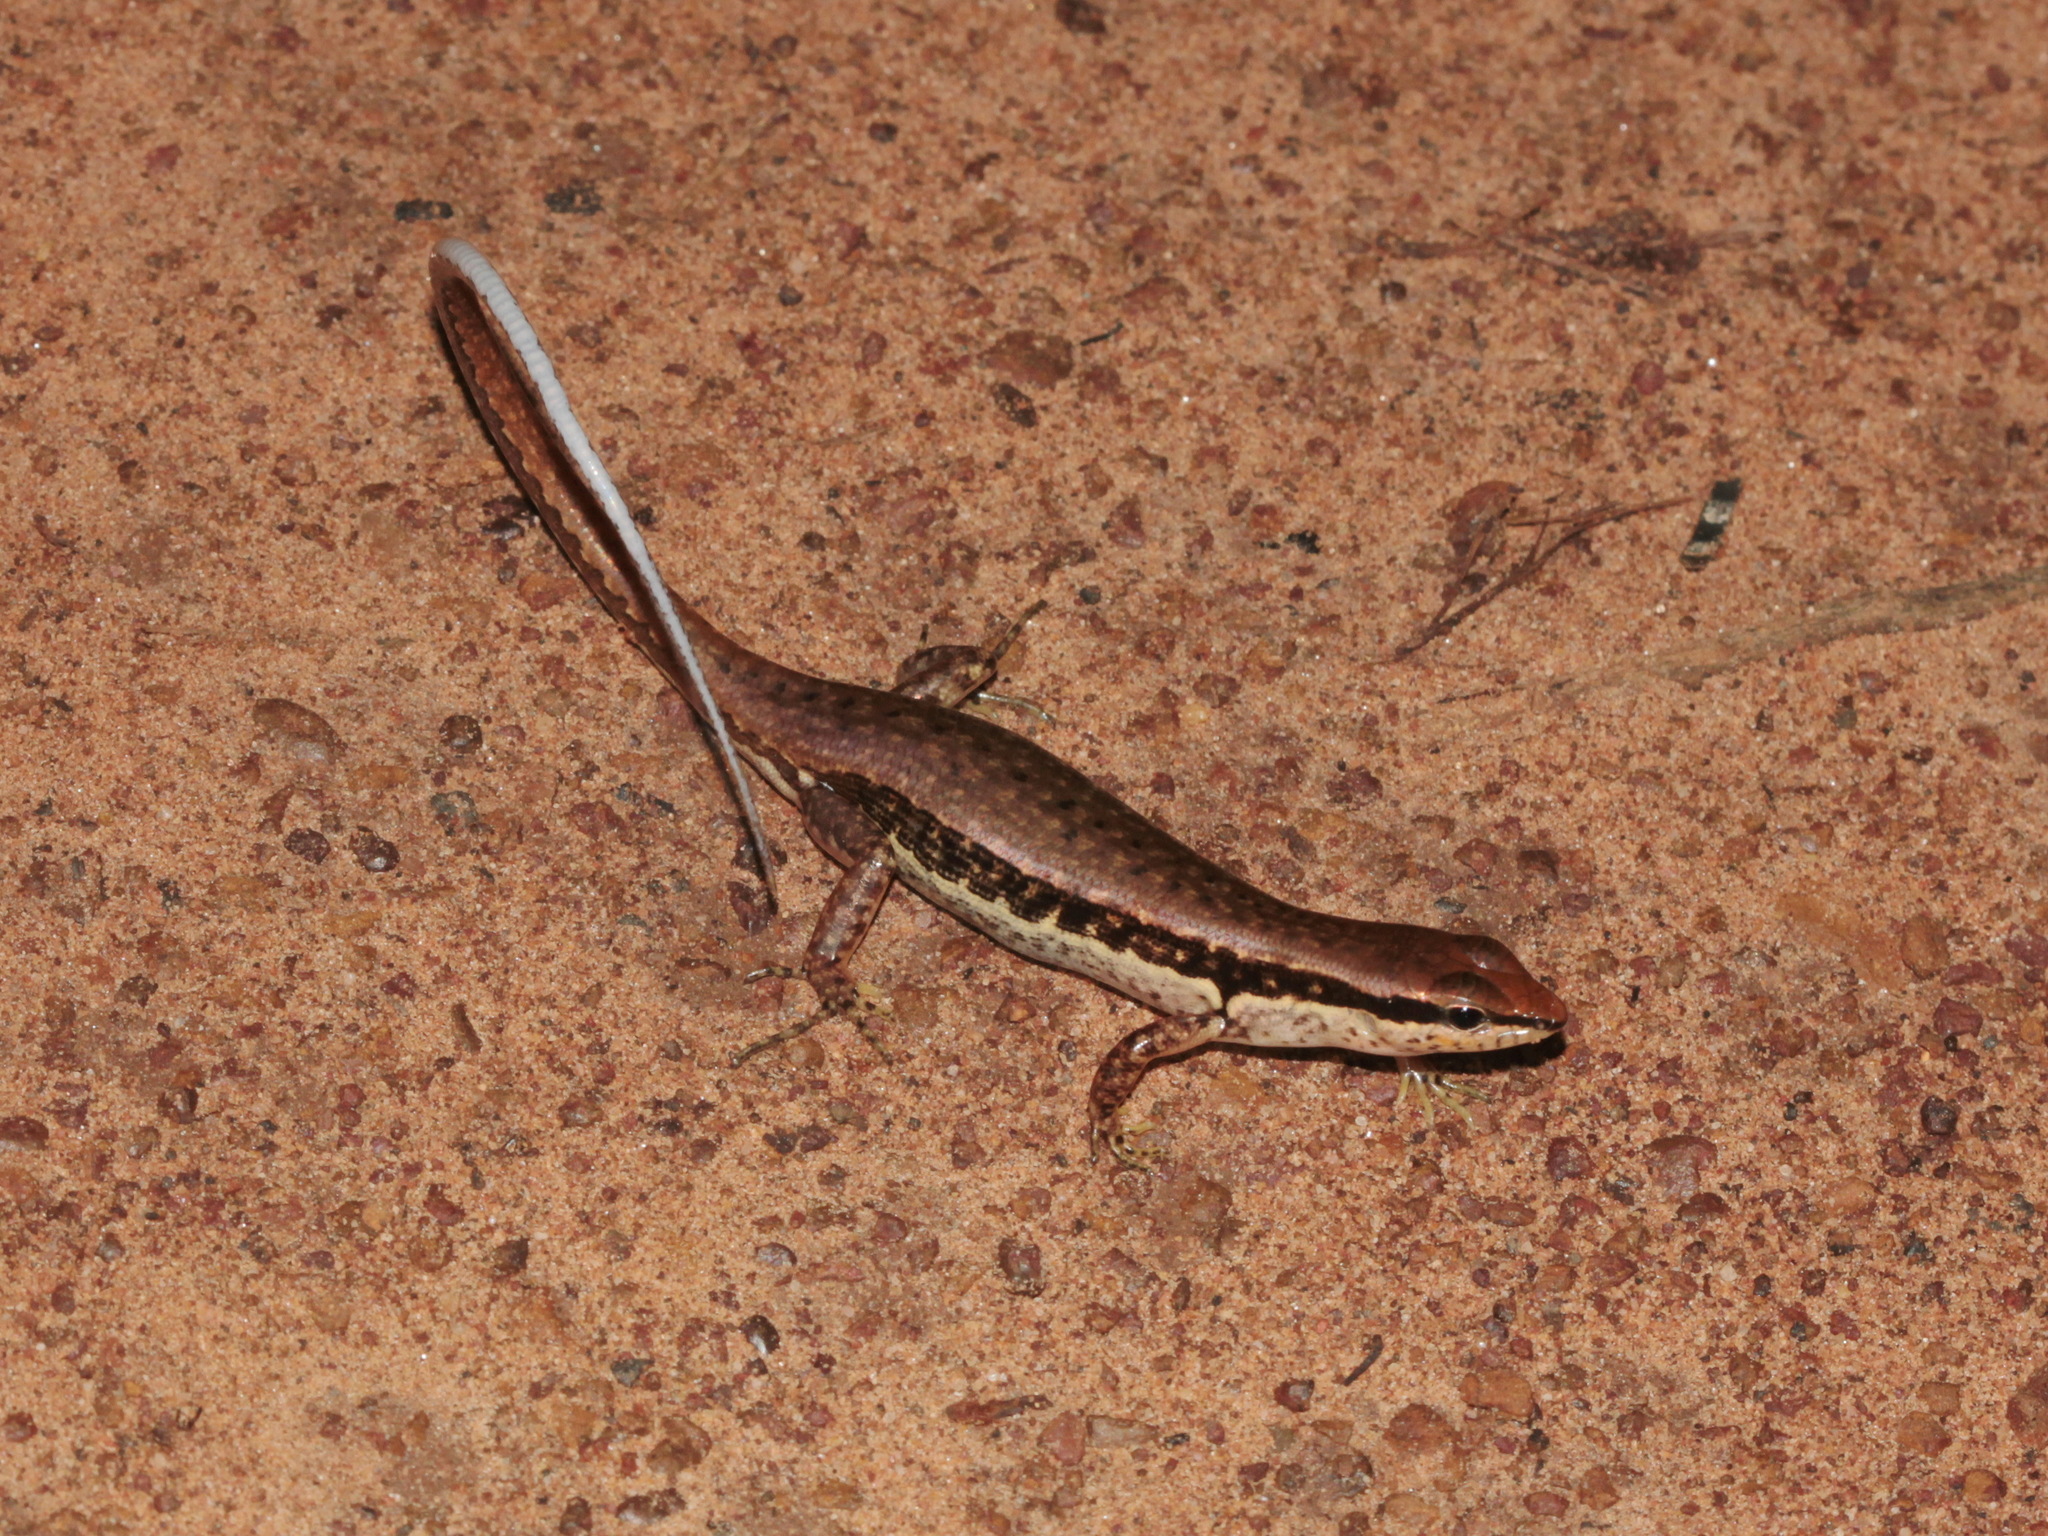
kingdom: Animalia
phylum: Chordata
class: Squamata
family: Scincidae
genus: Sphenomorphus
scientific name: Sphenomorphus maculatus
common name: Maculated forest skink
